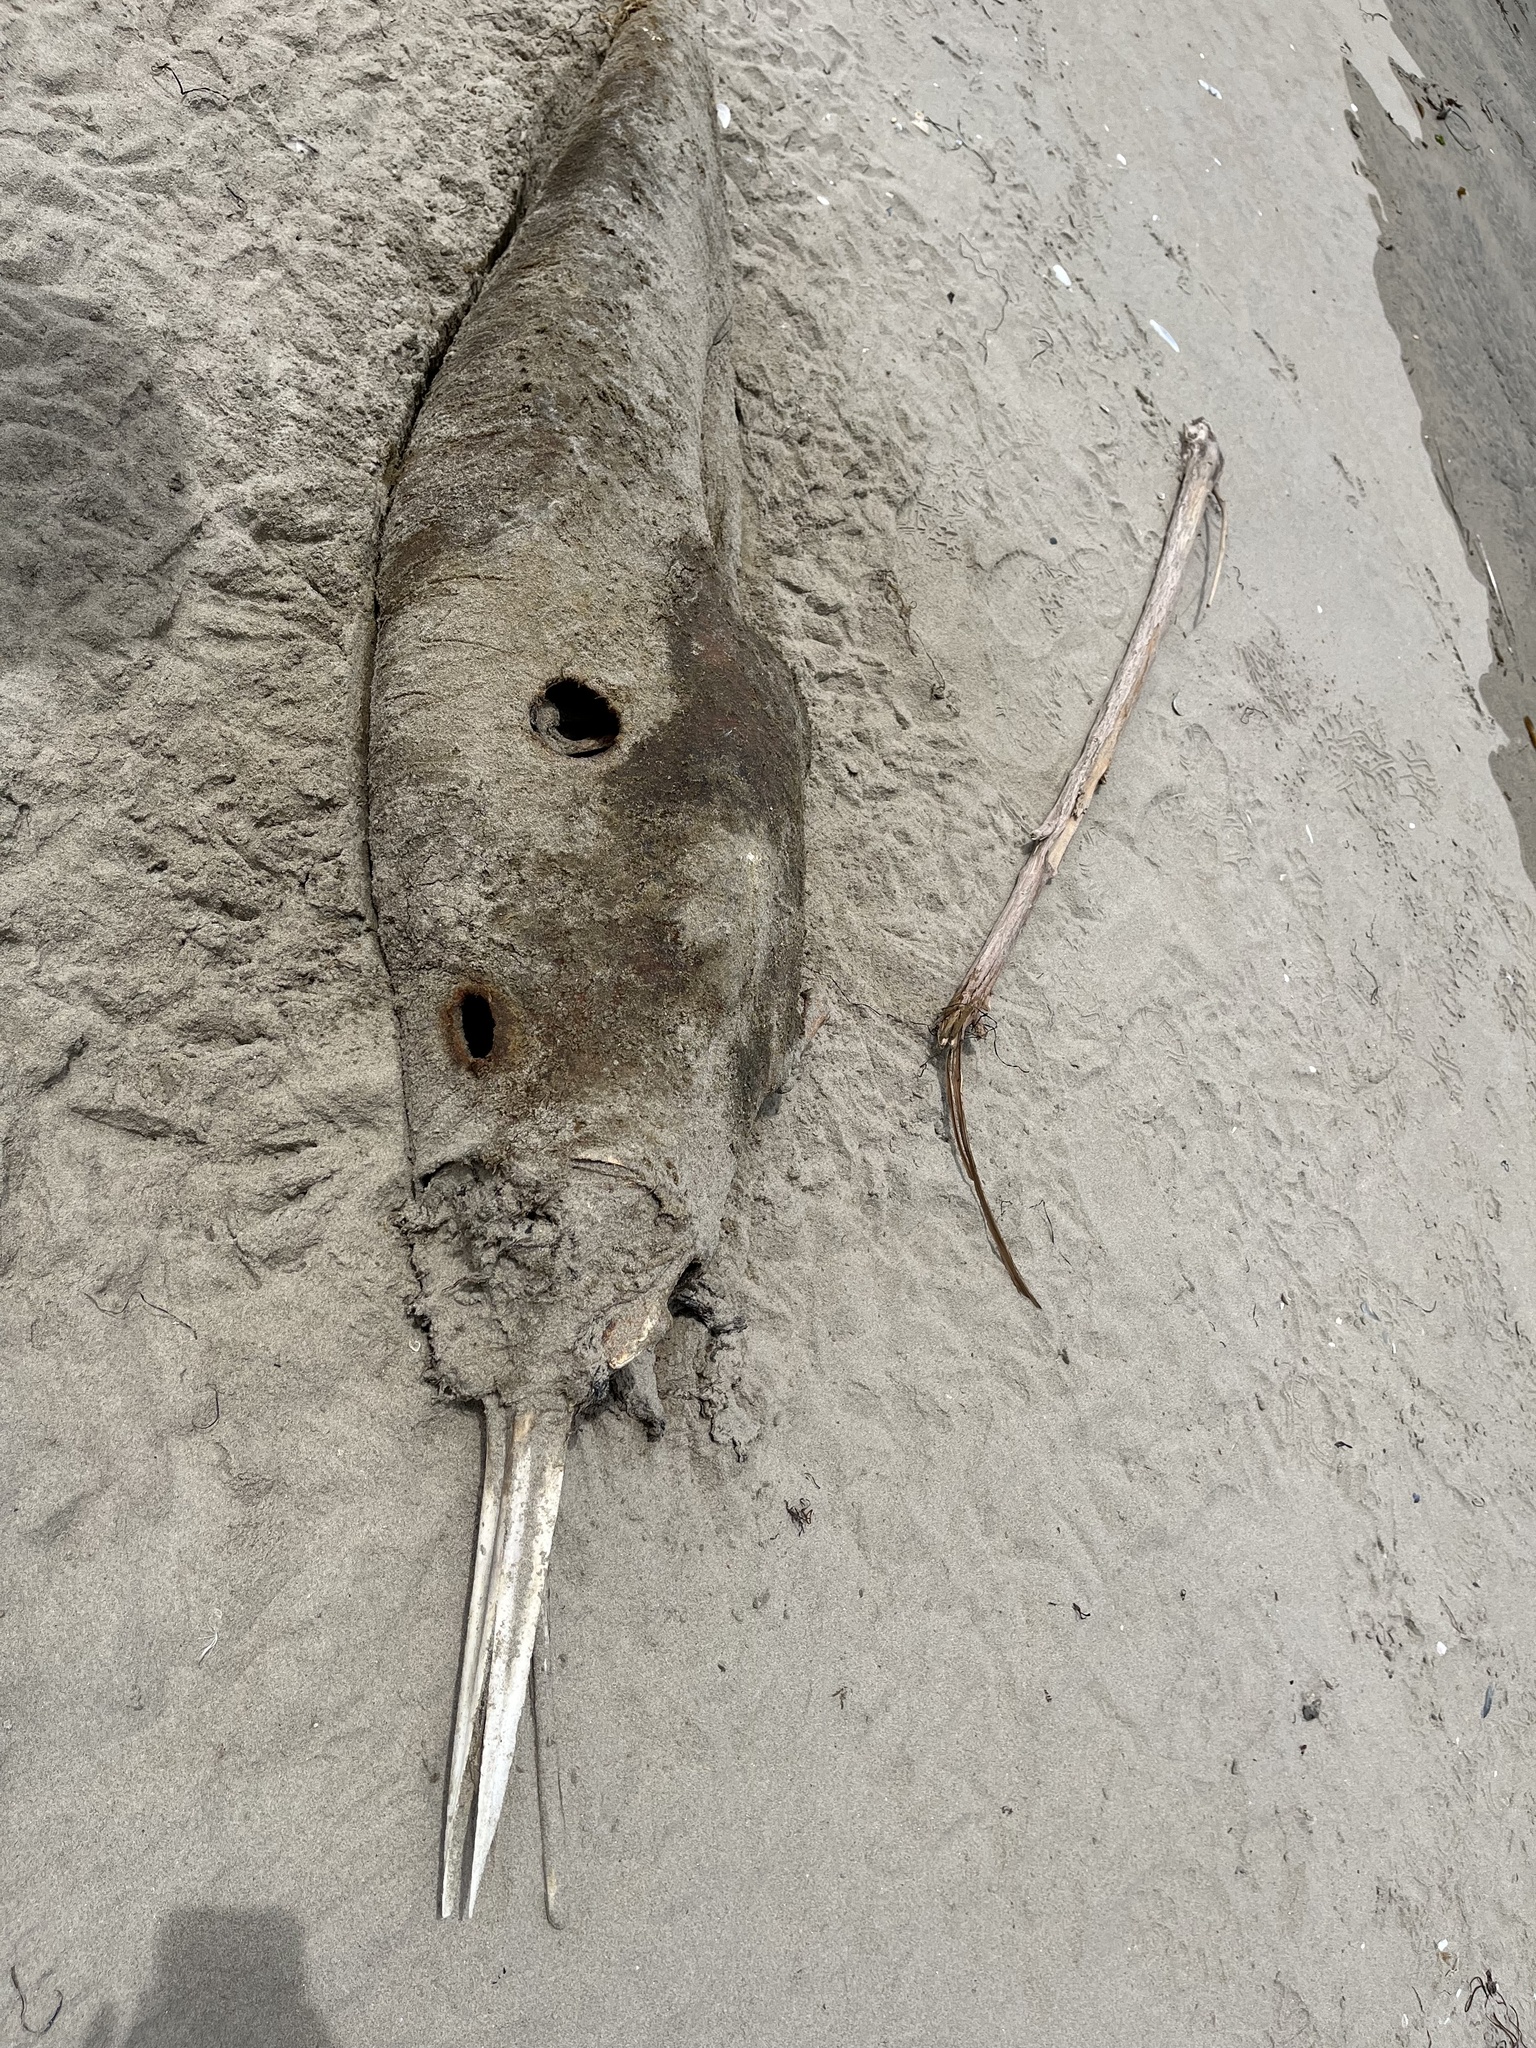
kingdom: Animalia
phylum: Chordata
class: Mammalia
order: Cetacea
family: Delphinidae
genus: Delphinus
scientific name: Delphinus delphis
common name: Common dolphin
